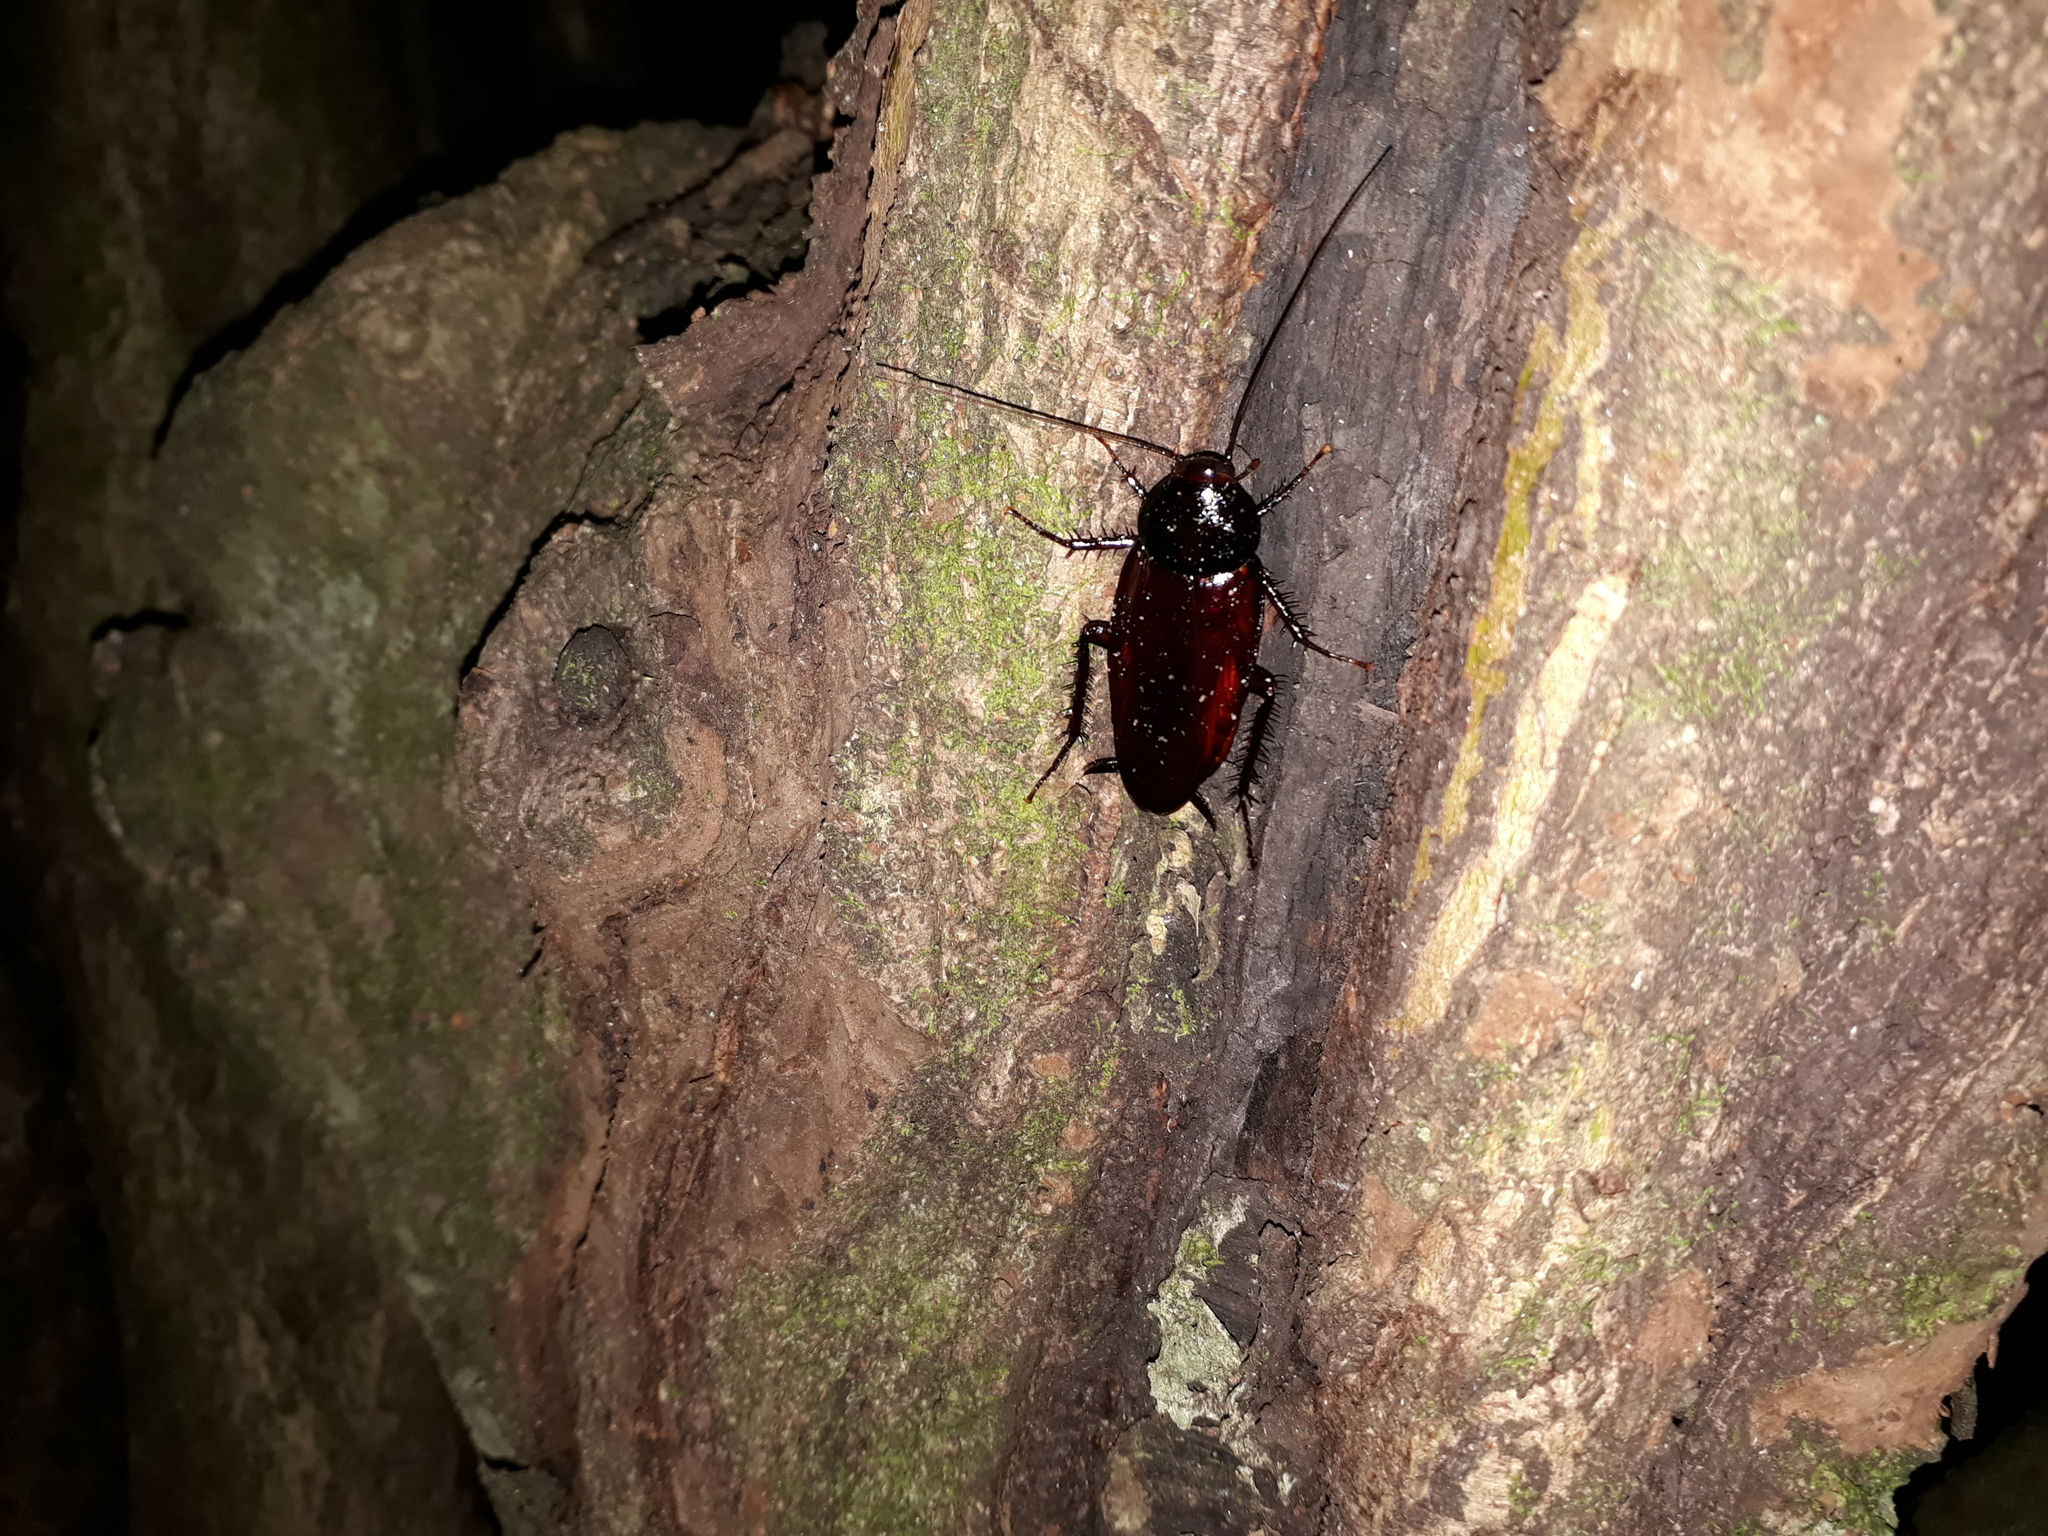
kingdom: Animalia
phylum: Arthropoda
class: Insecta
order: Blattodea
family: Blattidae
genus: Periplaneta
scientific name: Periplaneta fuliginosa
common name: Smokeybrown cockroad
